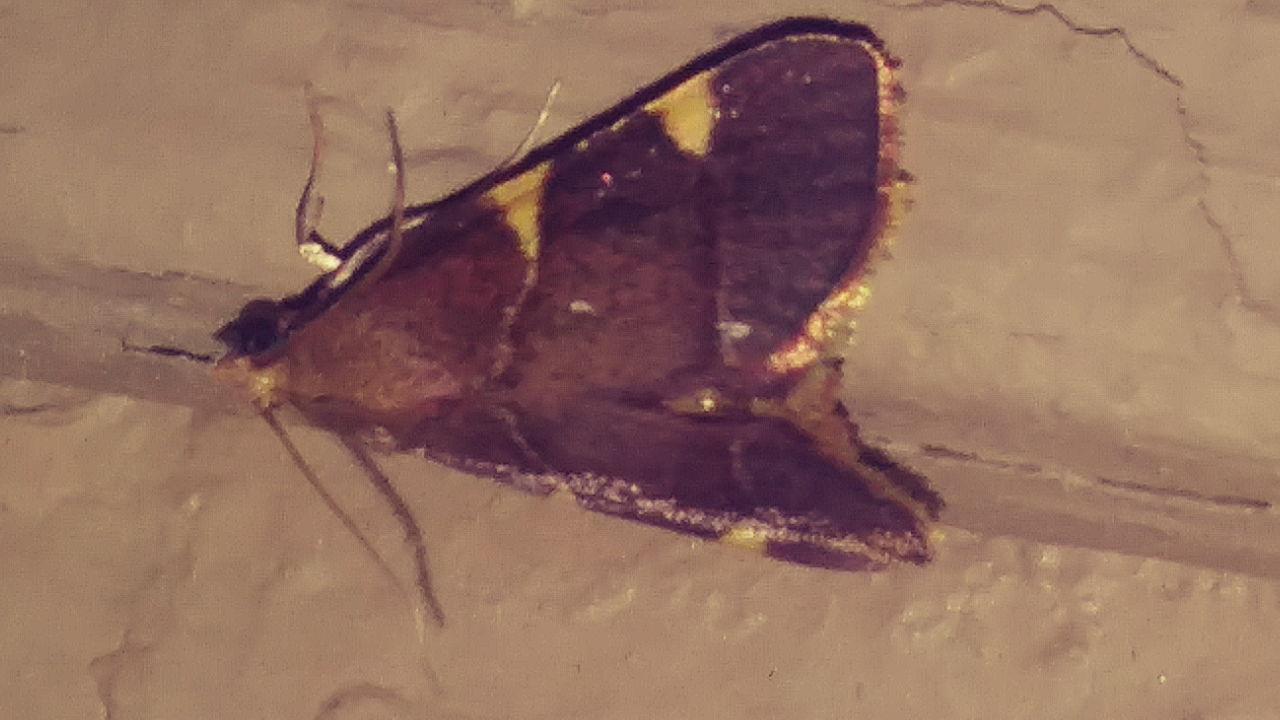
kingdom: Animalia
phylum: Arthropoda
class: Insecta
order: Lepidoptera
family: Pyralidae
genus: Hypsopygia
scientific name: Hypsopygia olinalis
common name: Yellow-fringed dolichomia moth
